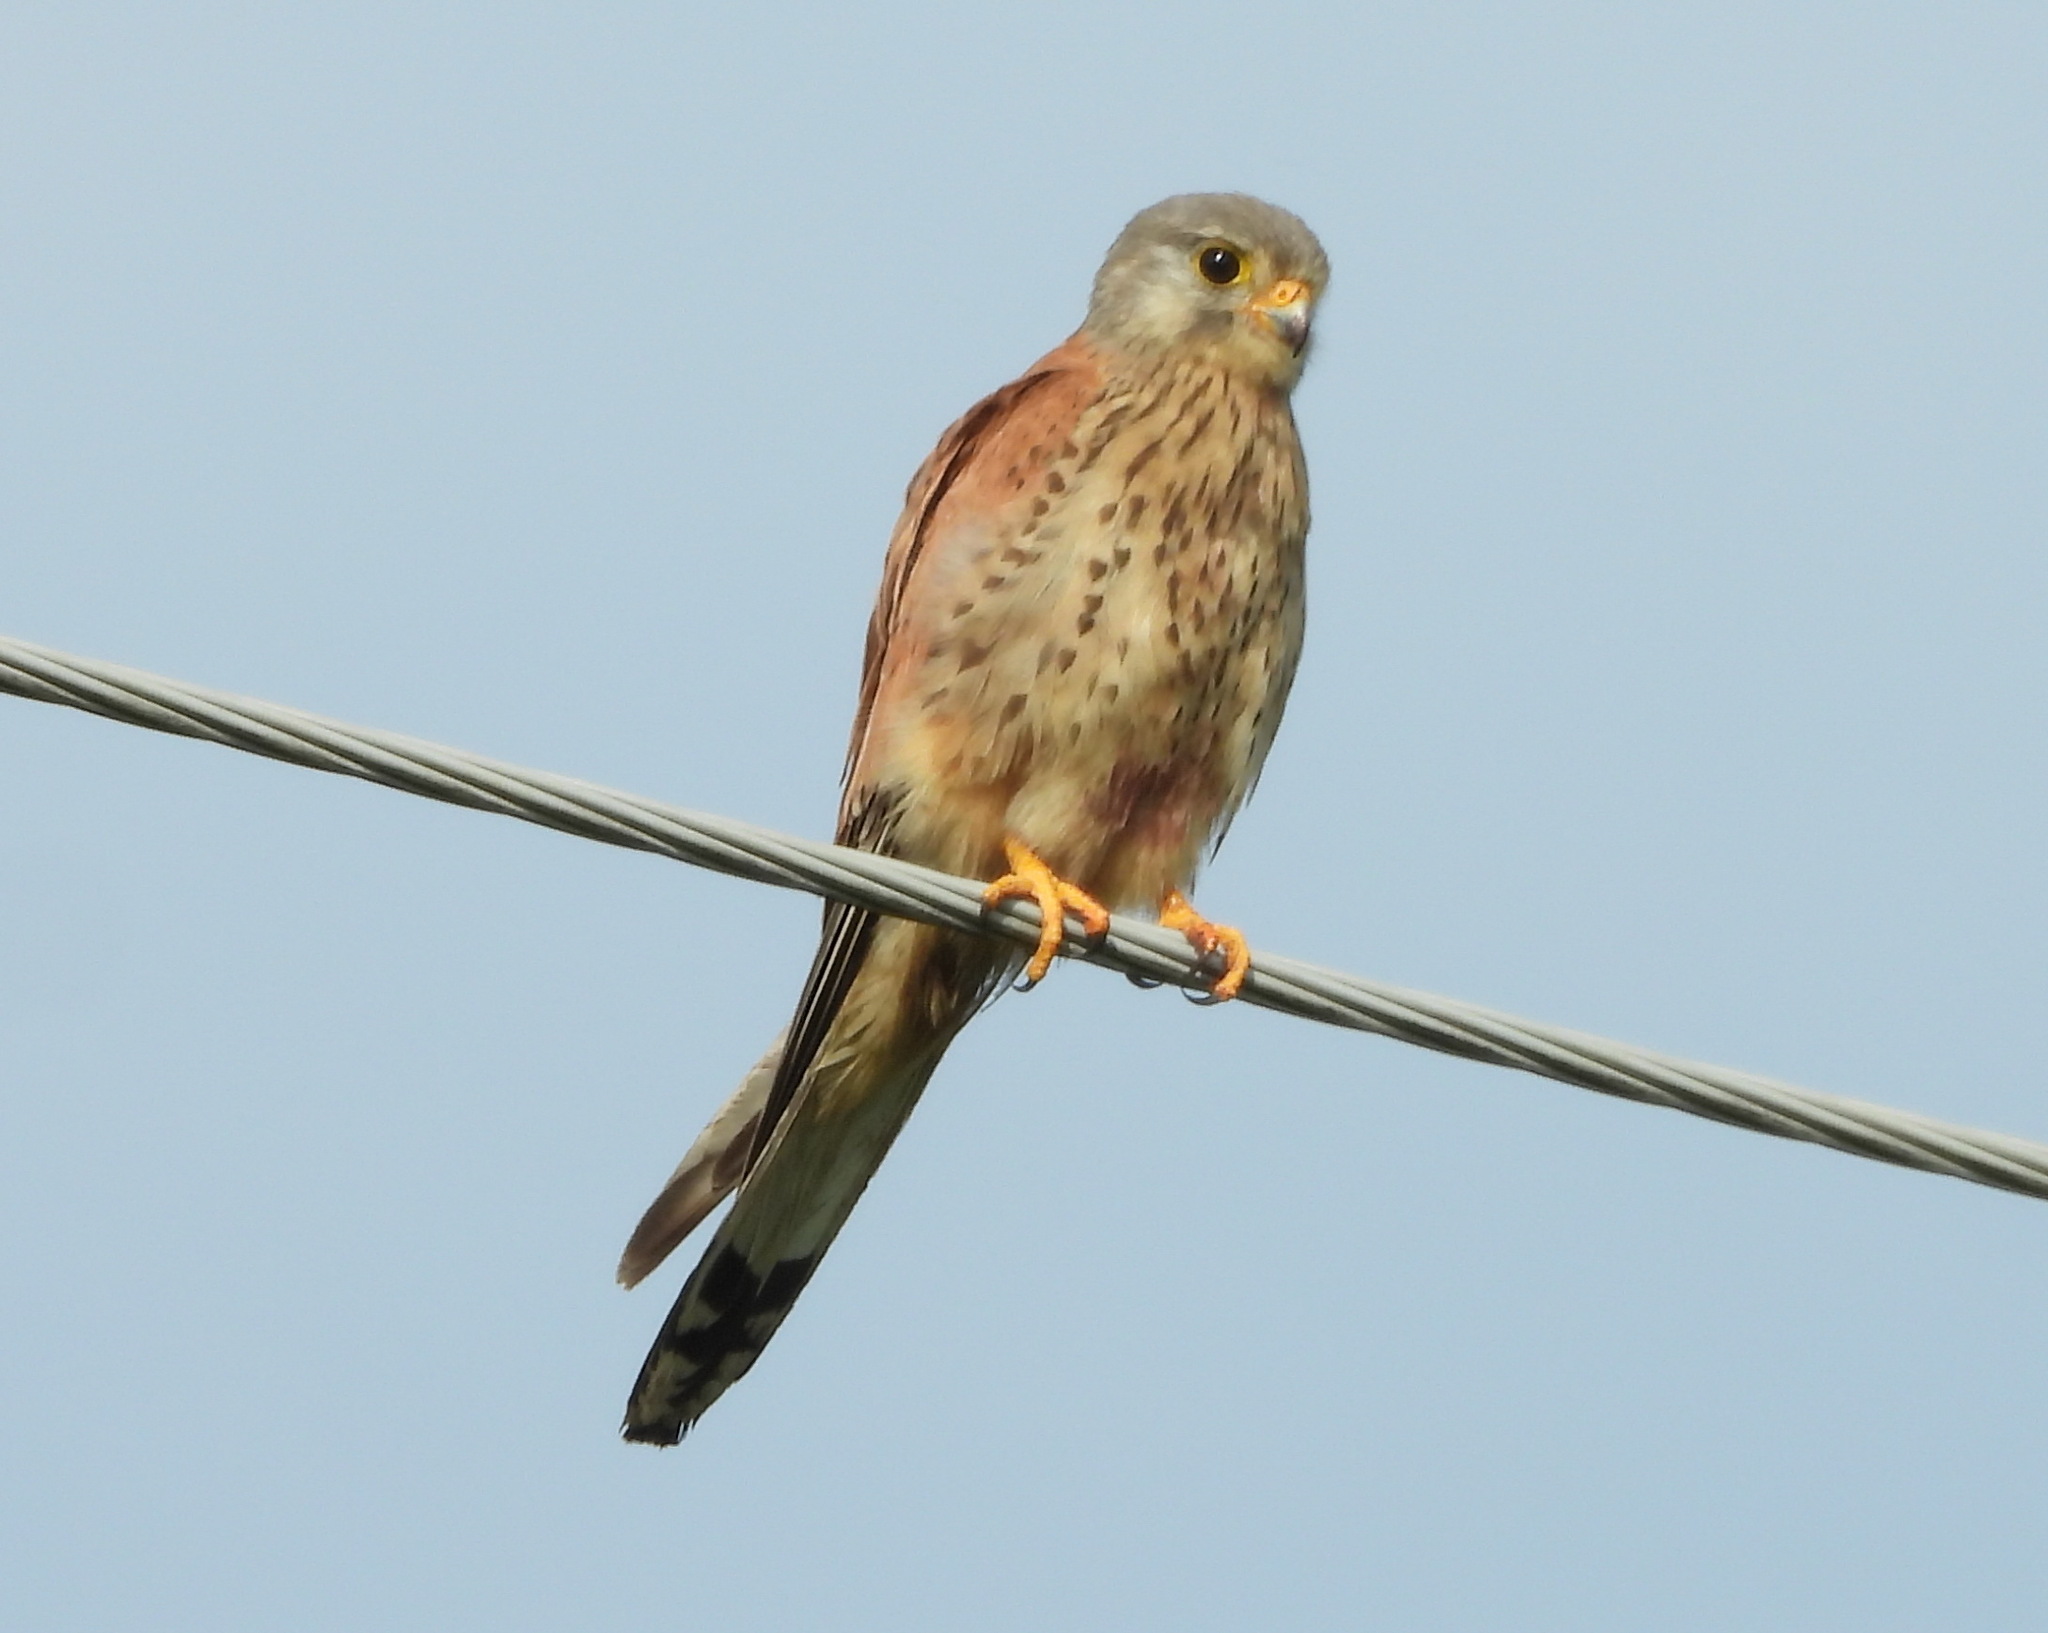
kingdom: Animalia
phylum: Chordata
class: Aves
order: Falconiformes
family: Falconidae
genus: Falco
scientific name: Falco tinnunculus
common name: Common kestrel
